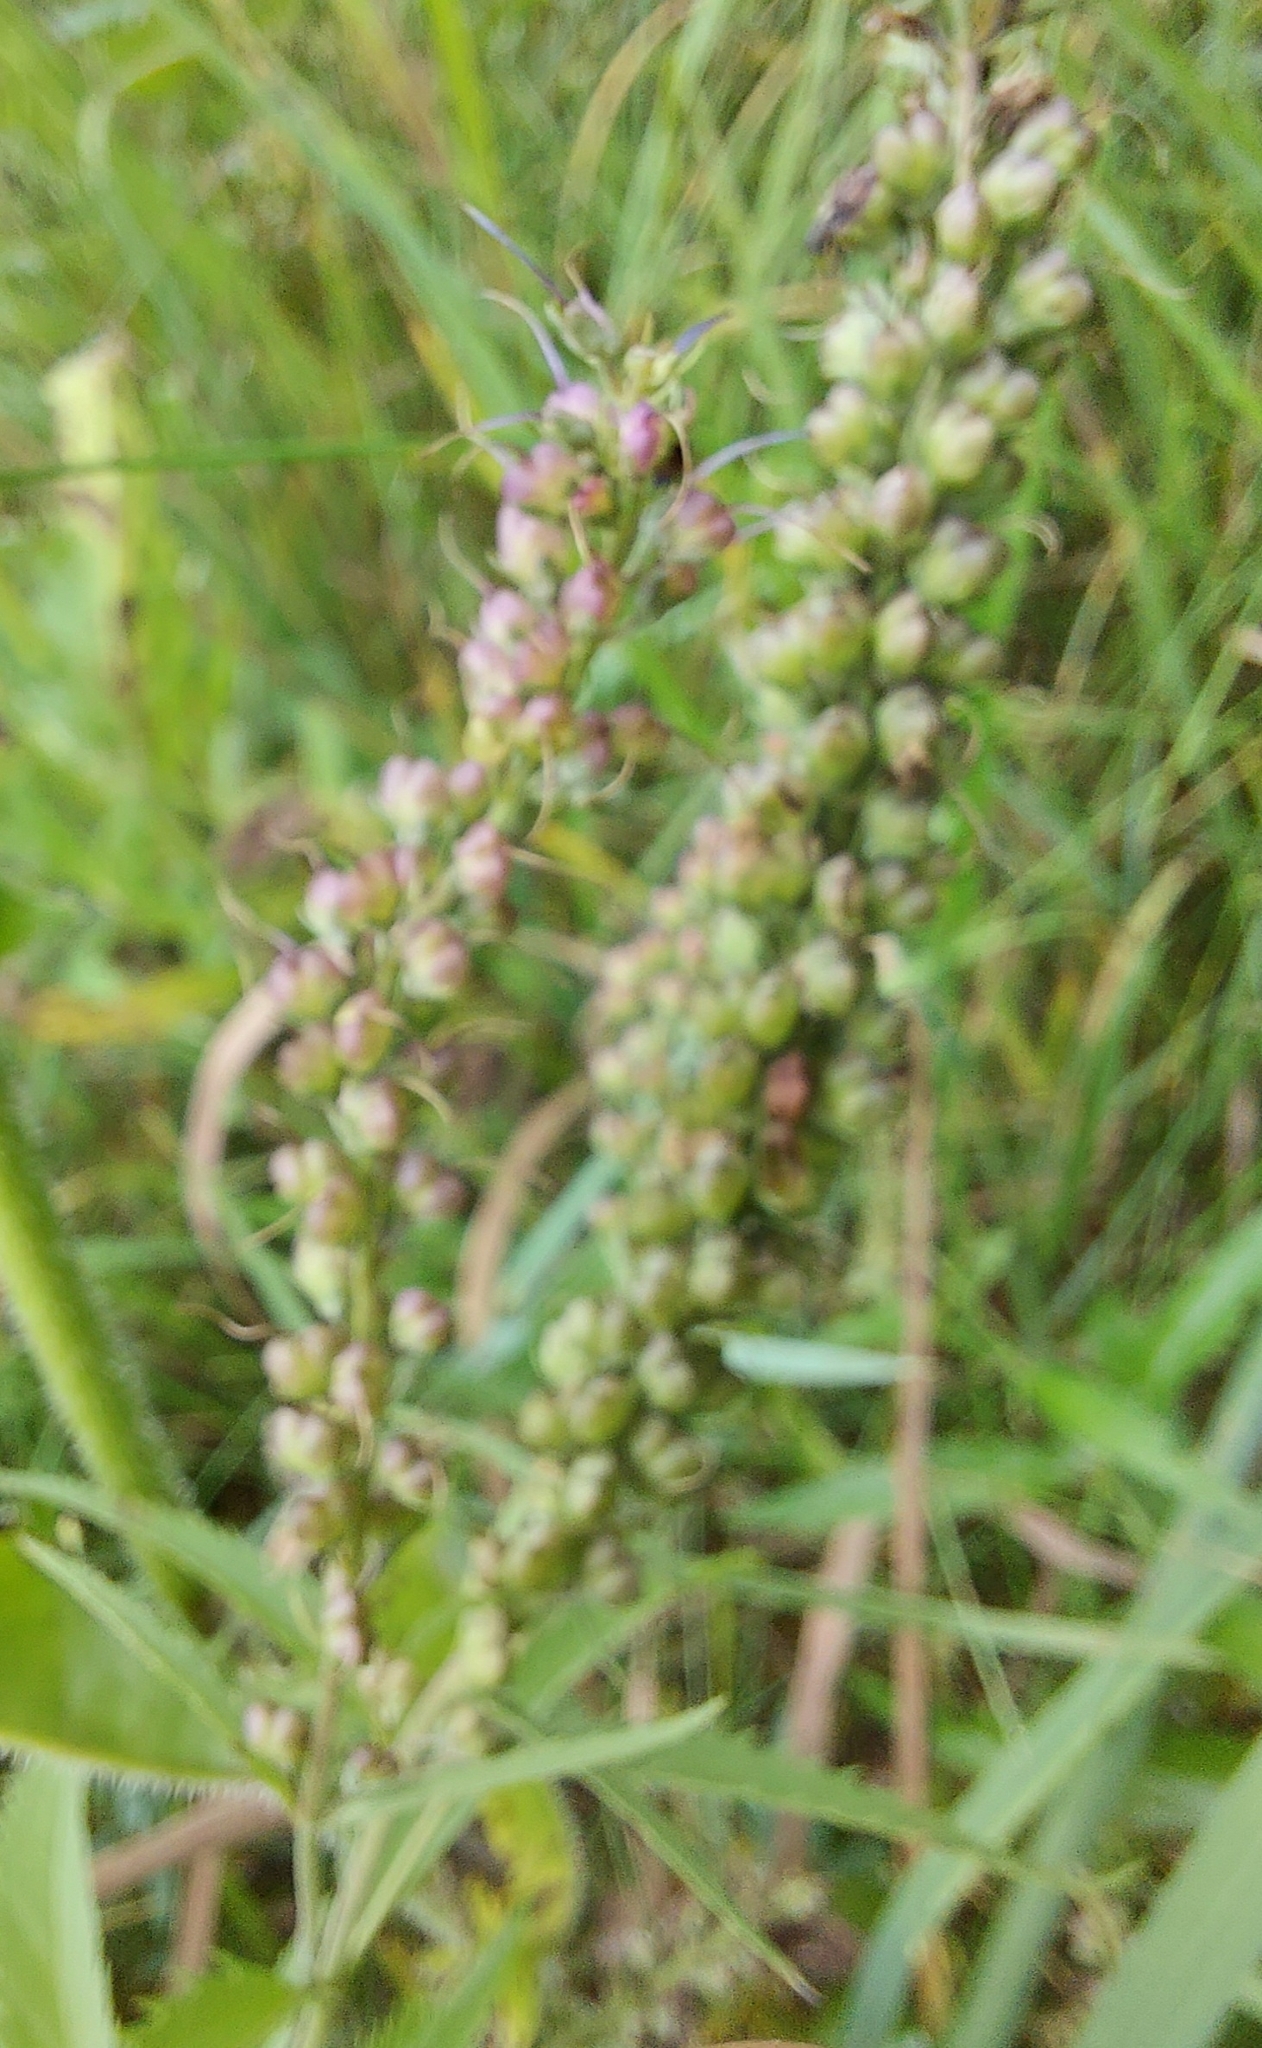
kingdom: Plantae
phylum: Tracheophyta
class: Magnoliopsida
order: Lamiales
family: Plantaginaceae
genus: Veronica
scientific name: Veronica longifolia
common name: Garden speedwell
